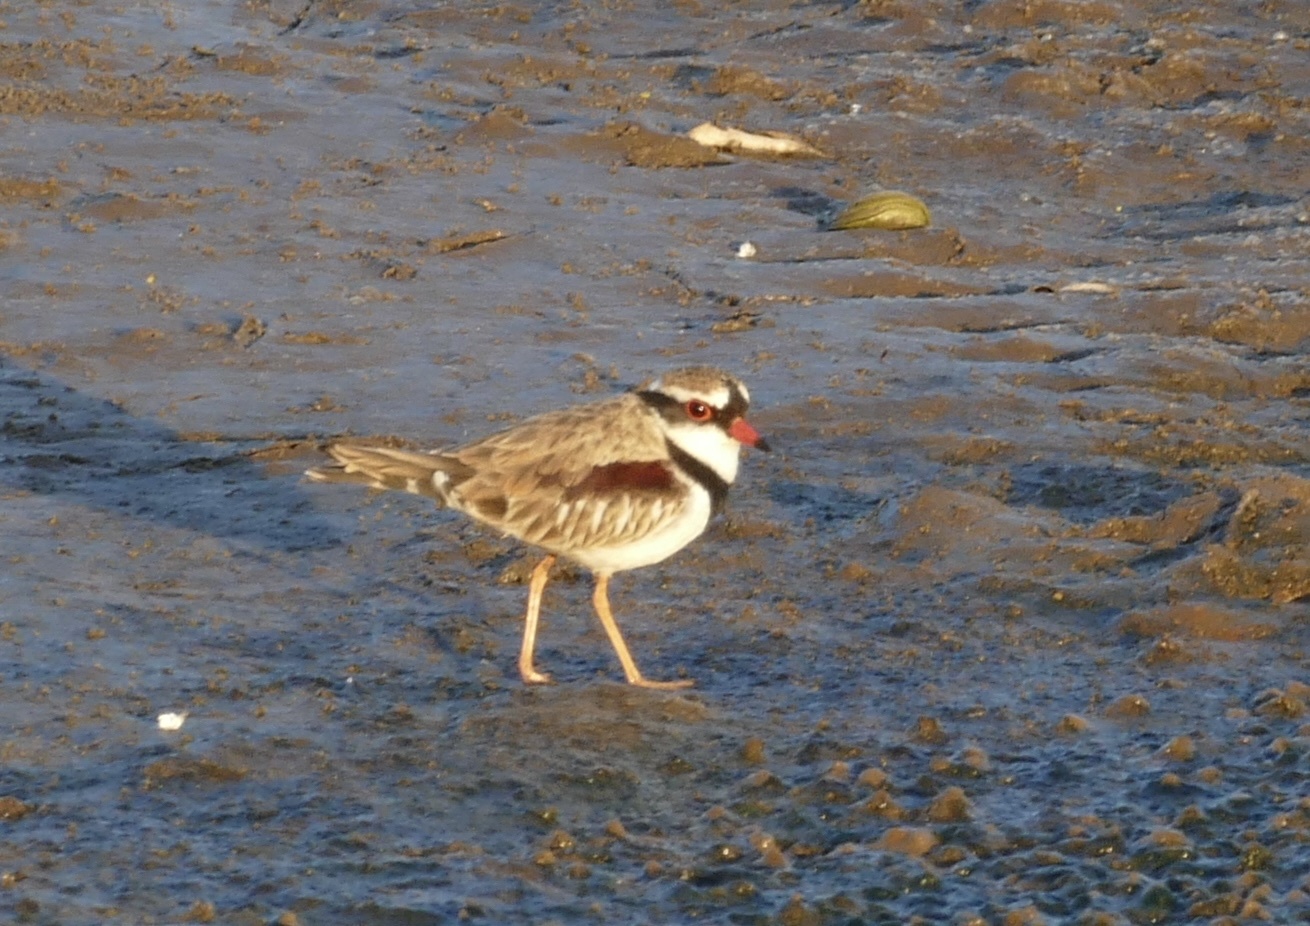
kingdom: Animalia
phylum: Chordata
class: Aves
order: Charadriiformes
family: Charadriidae
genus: Elseyornis
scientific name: Elseyornis melanops
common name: Black-fronted dotterel
